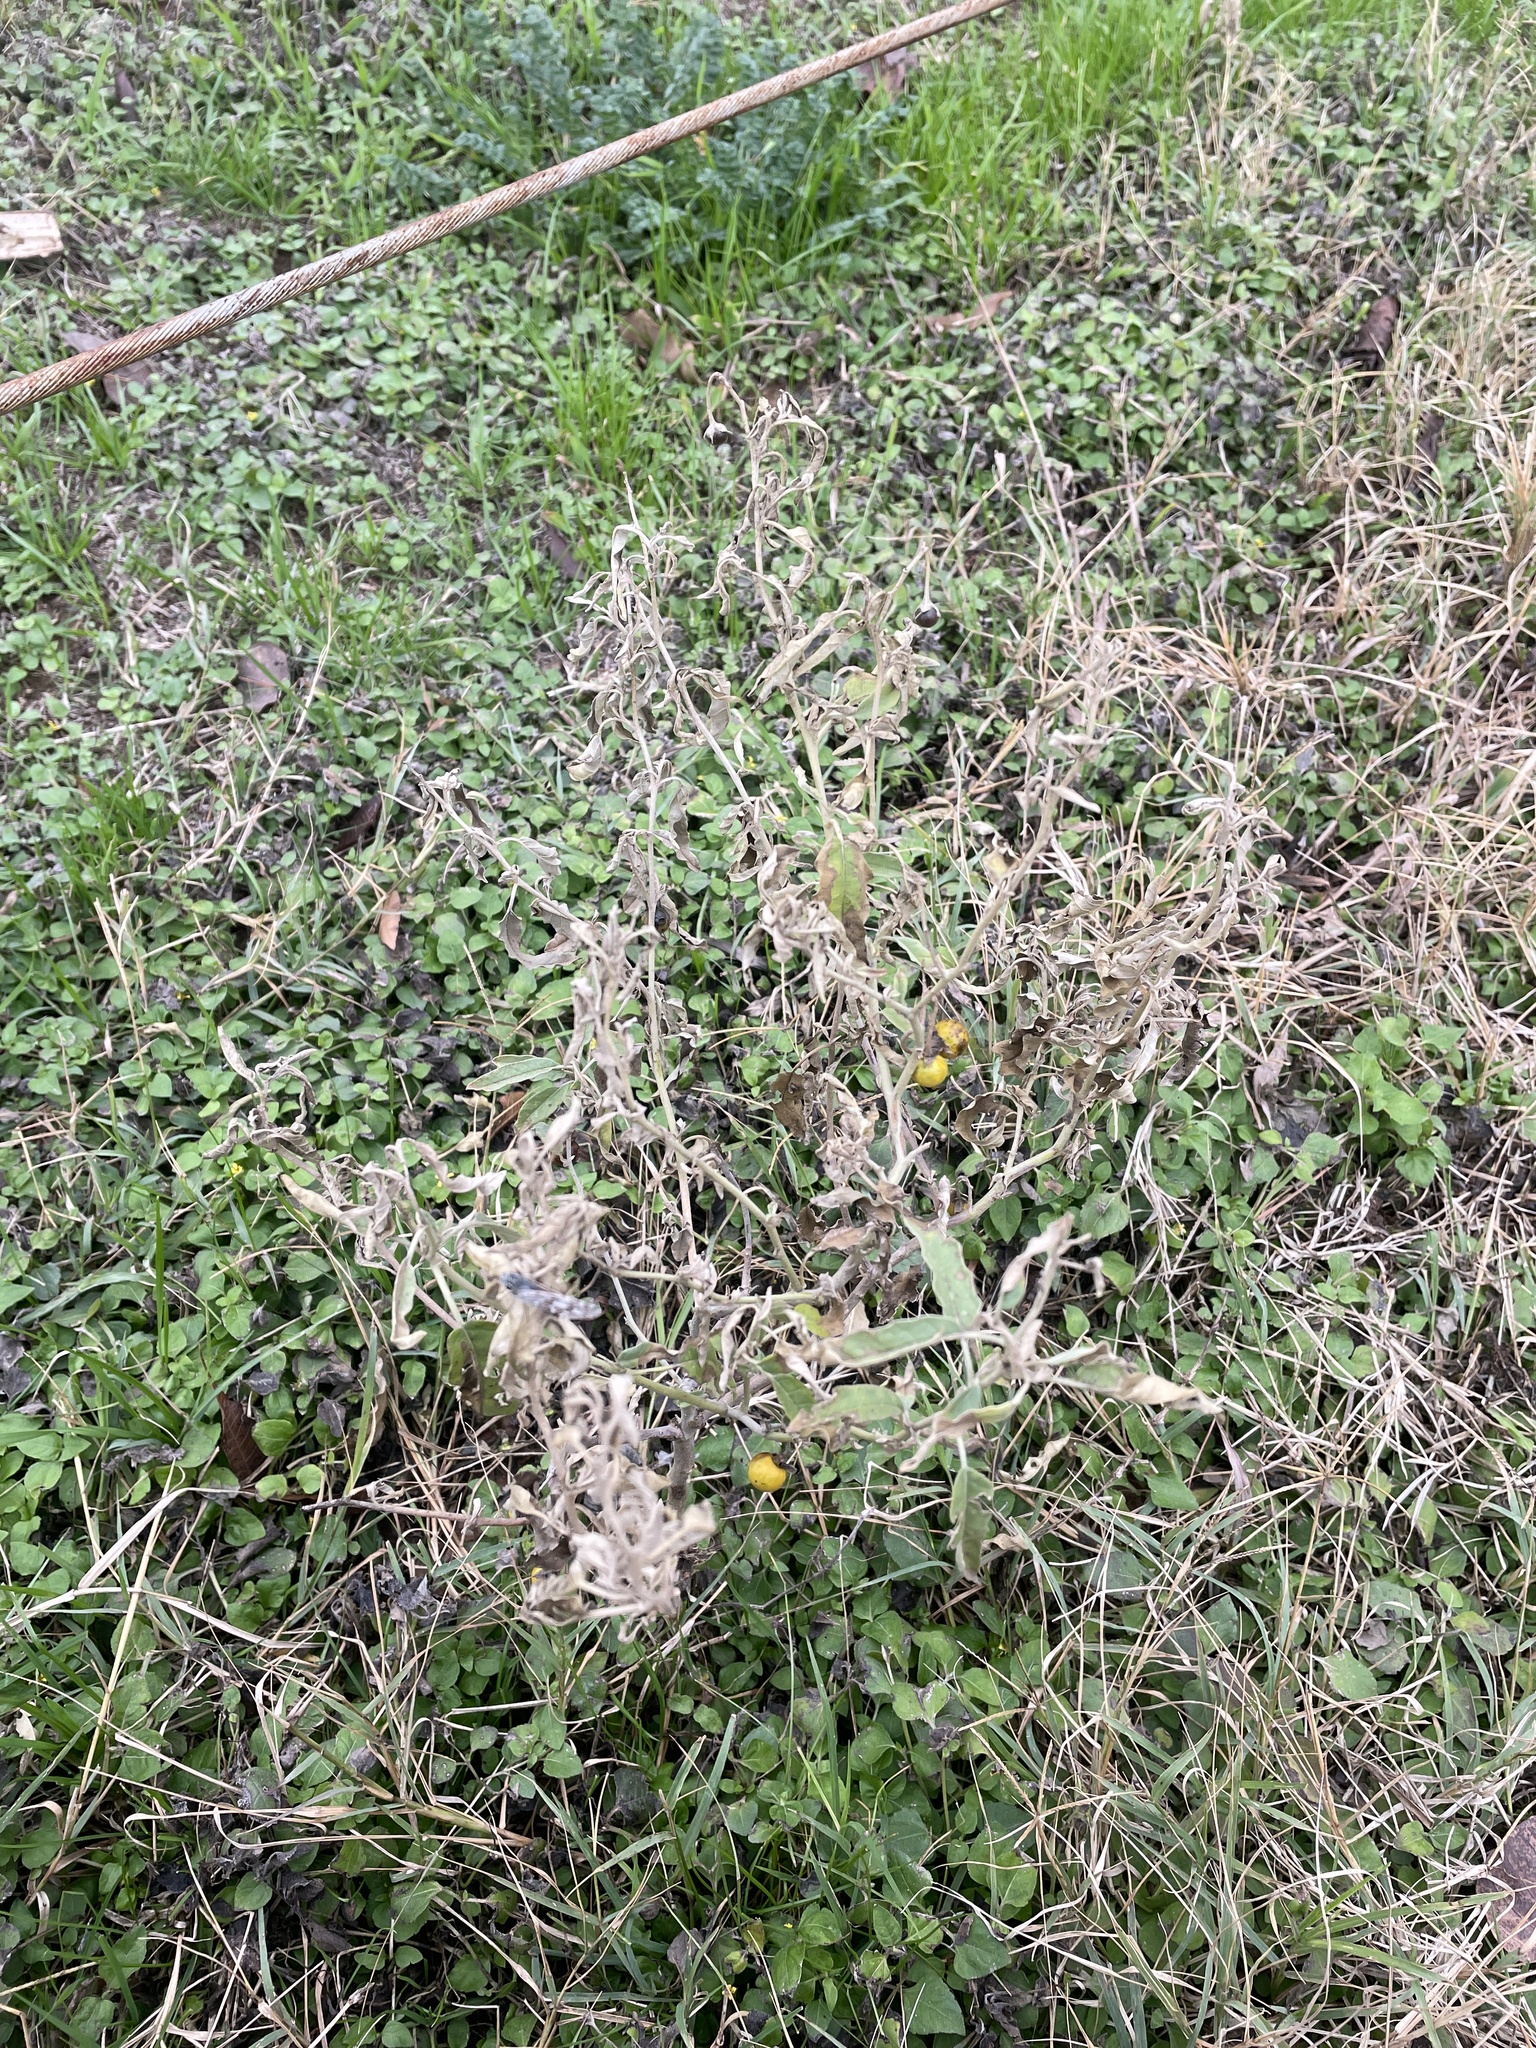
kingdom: Plantae
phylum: Tracheophyta
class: Magnoliopsida
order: Solanales
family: Solanaceae
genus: Solanum
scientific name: Solanum elaeagnifolium
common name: Silverleaf nightshade
